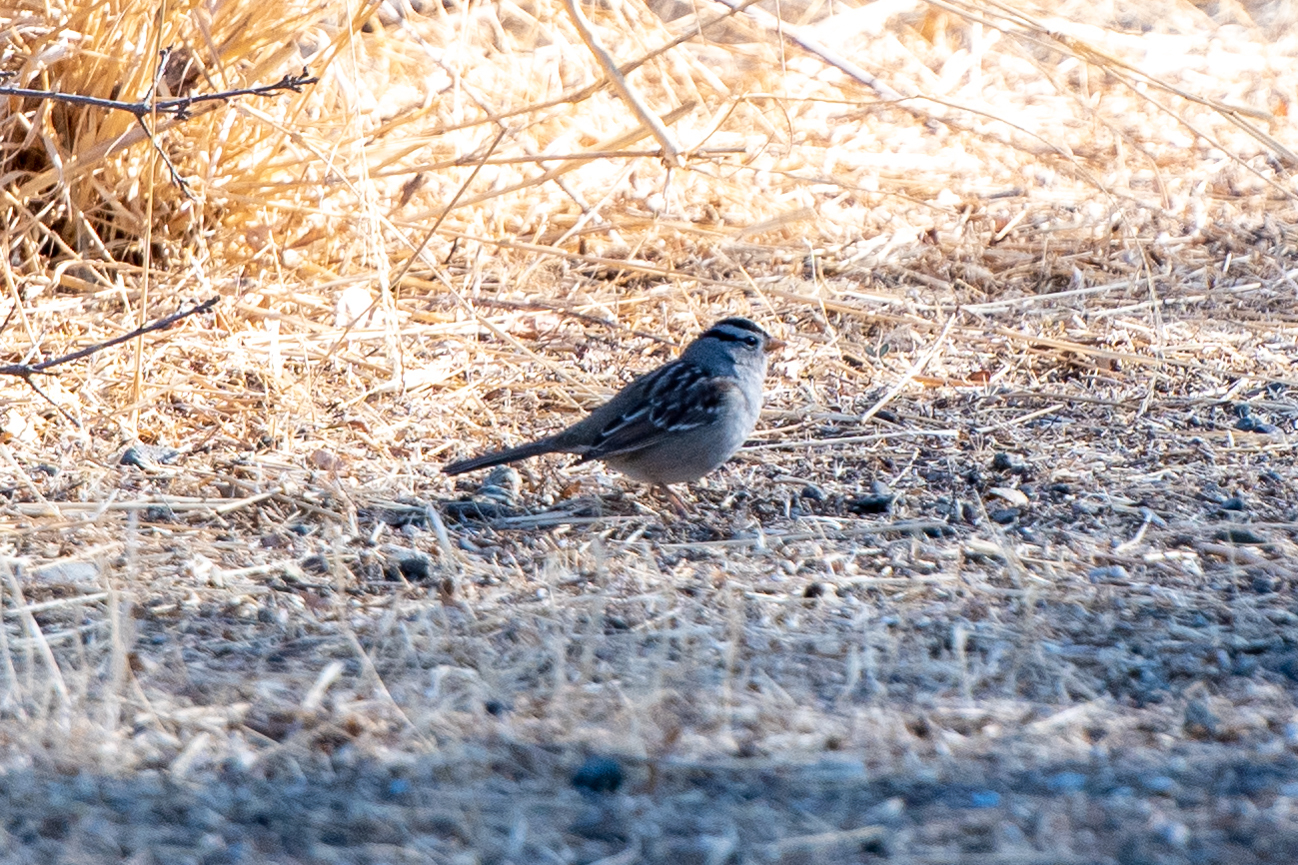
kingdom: Animalia
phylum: Chordata
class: Aves
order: Passeriformes
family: Passerellidae
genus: Zonotrichia
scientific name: Zonotrichia leucophrys
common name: White-crowned sparrow
